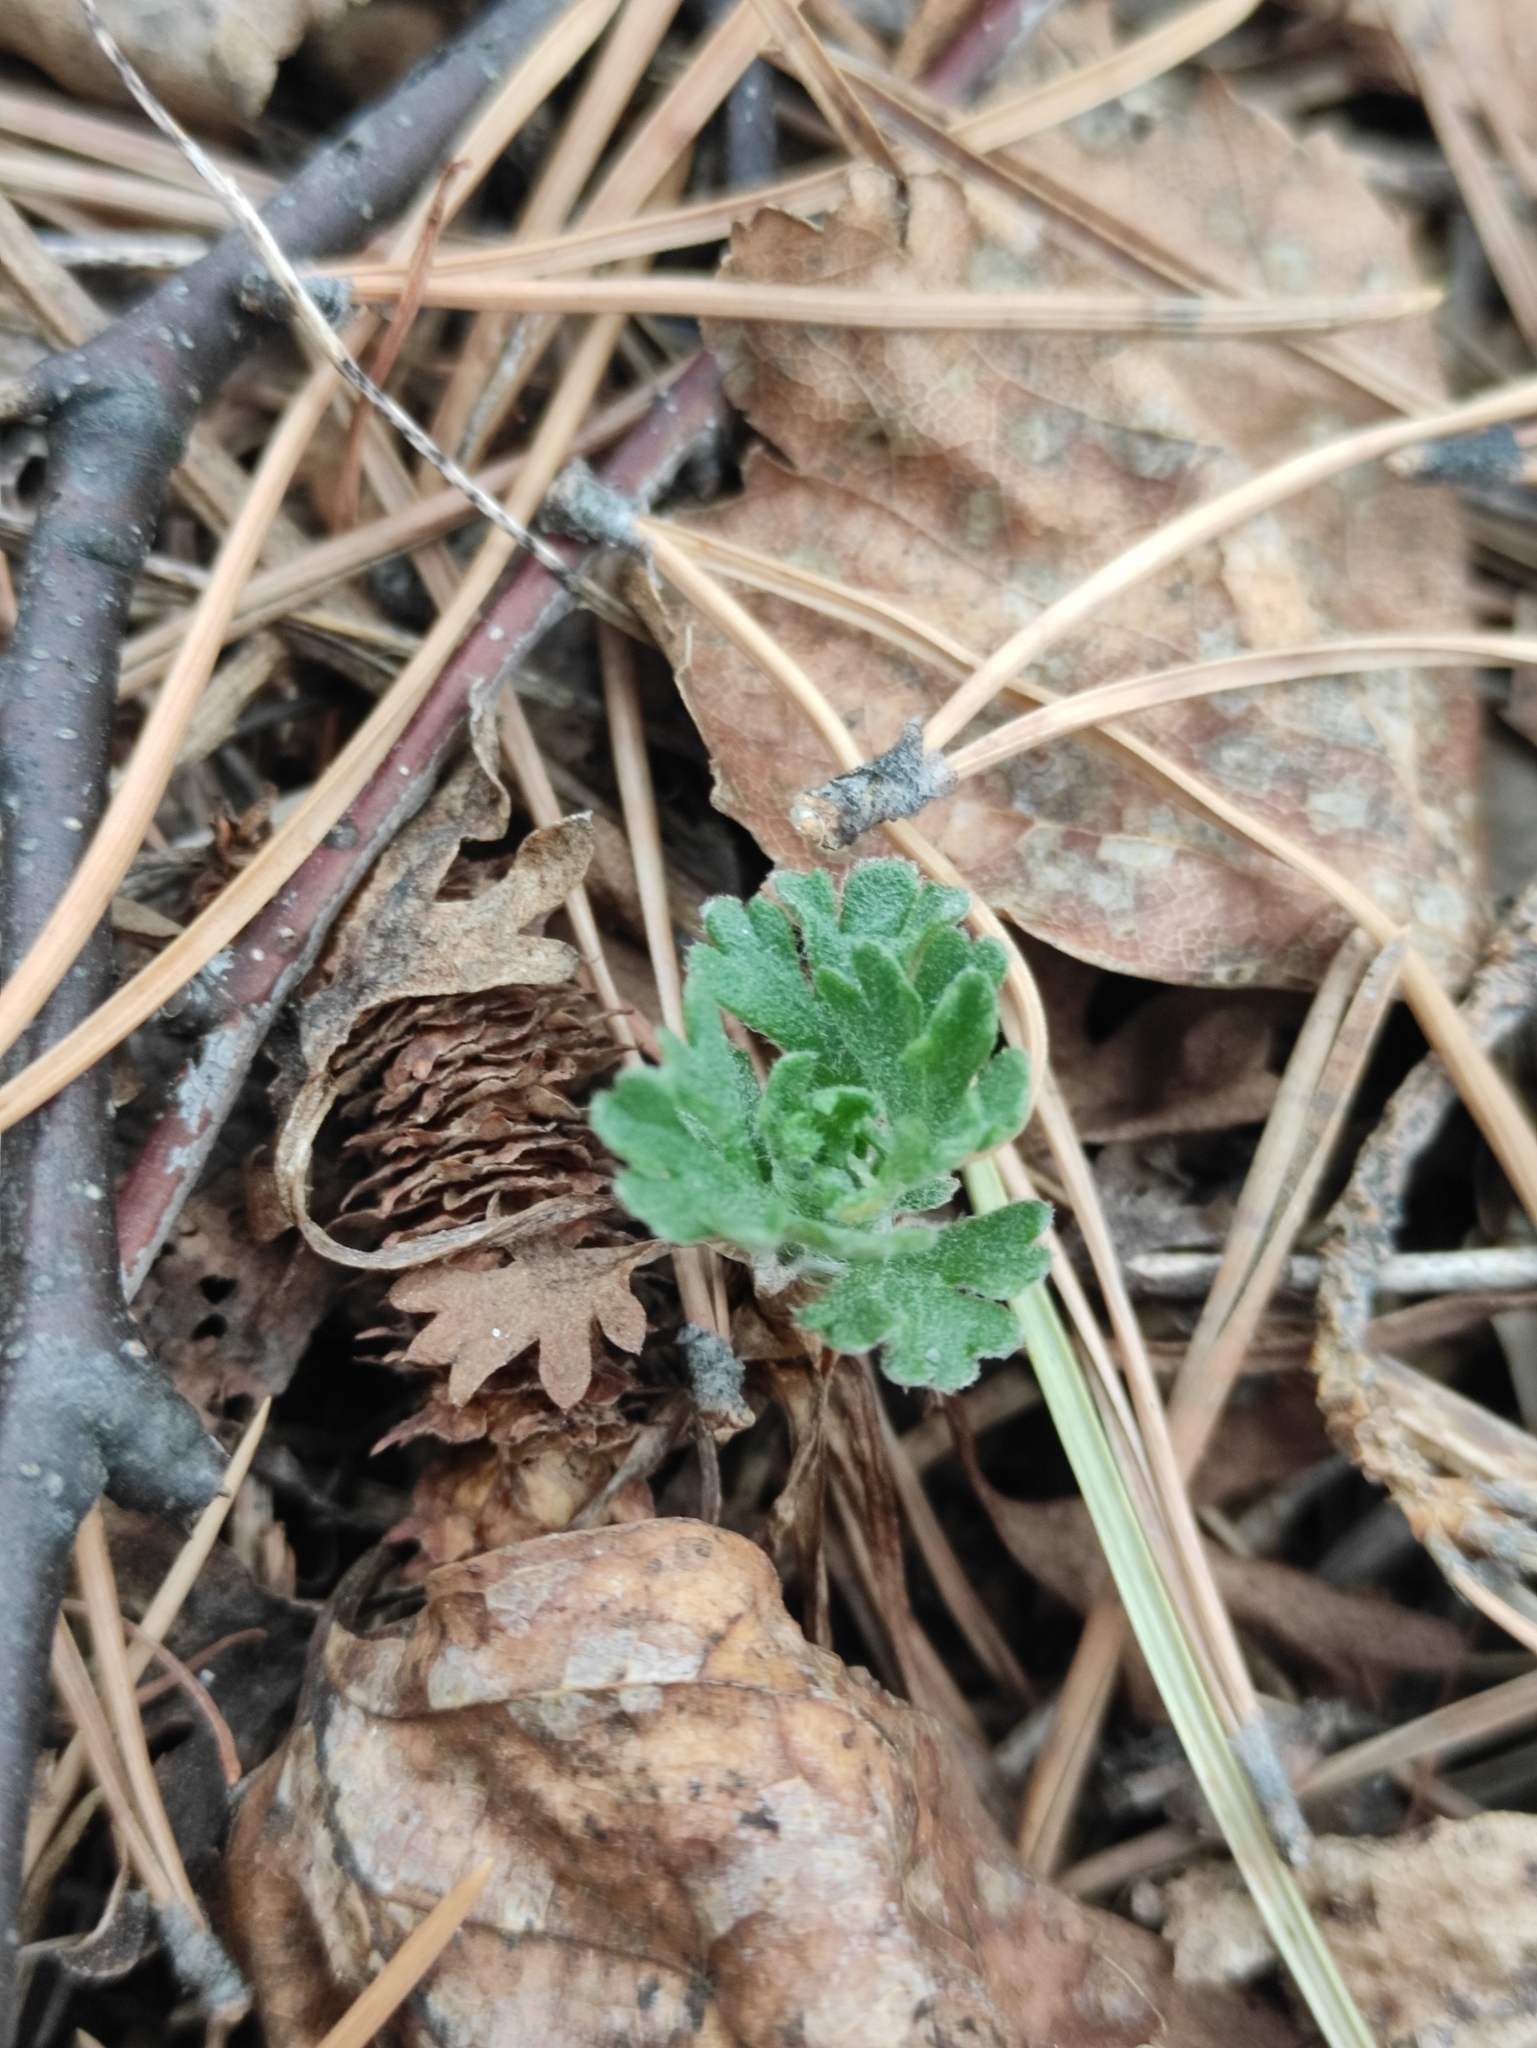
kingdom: Plantae
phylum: Tracheophyta
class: Magnoliopsida
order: Asterales
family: Asteraceae
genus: Chrysanthemum
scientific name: Chrysanthemum zawadzkii
